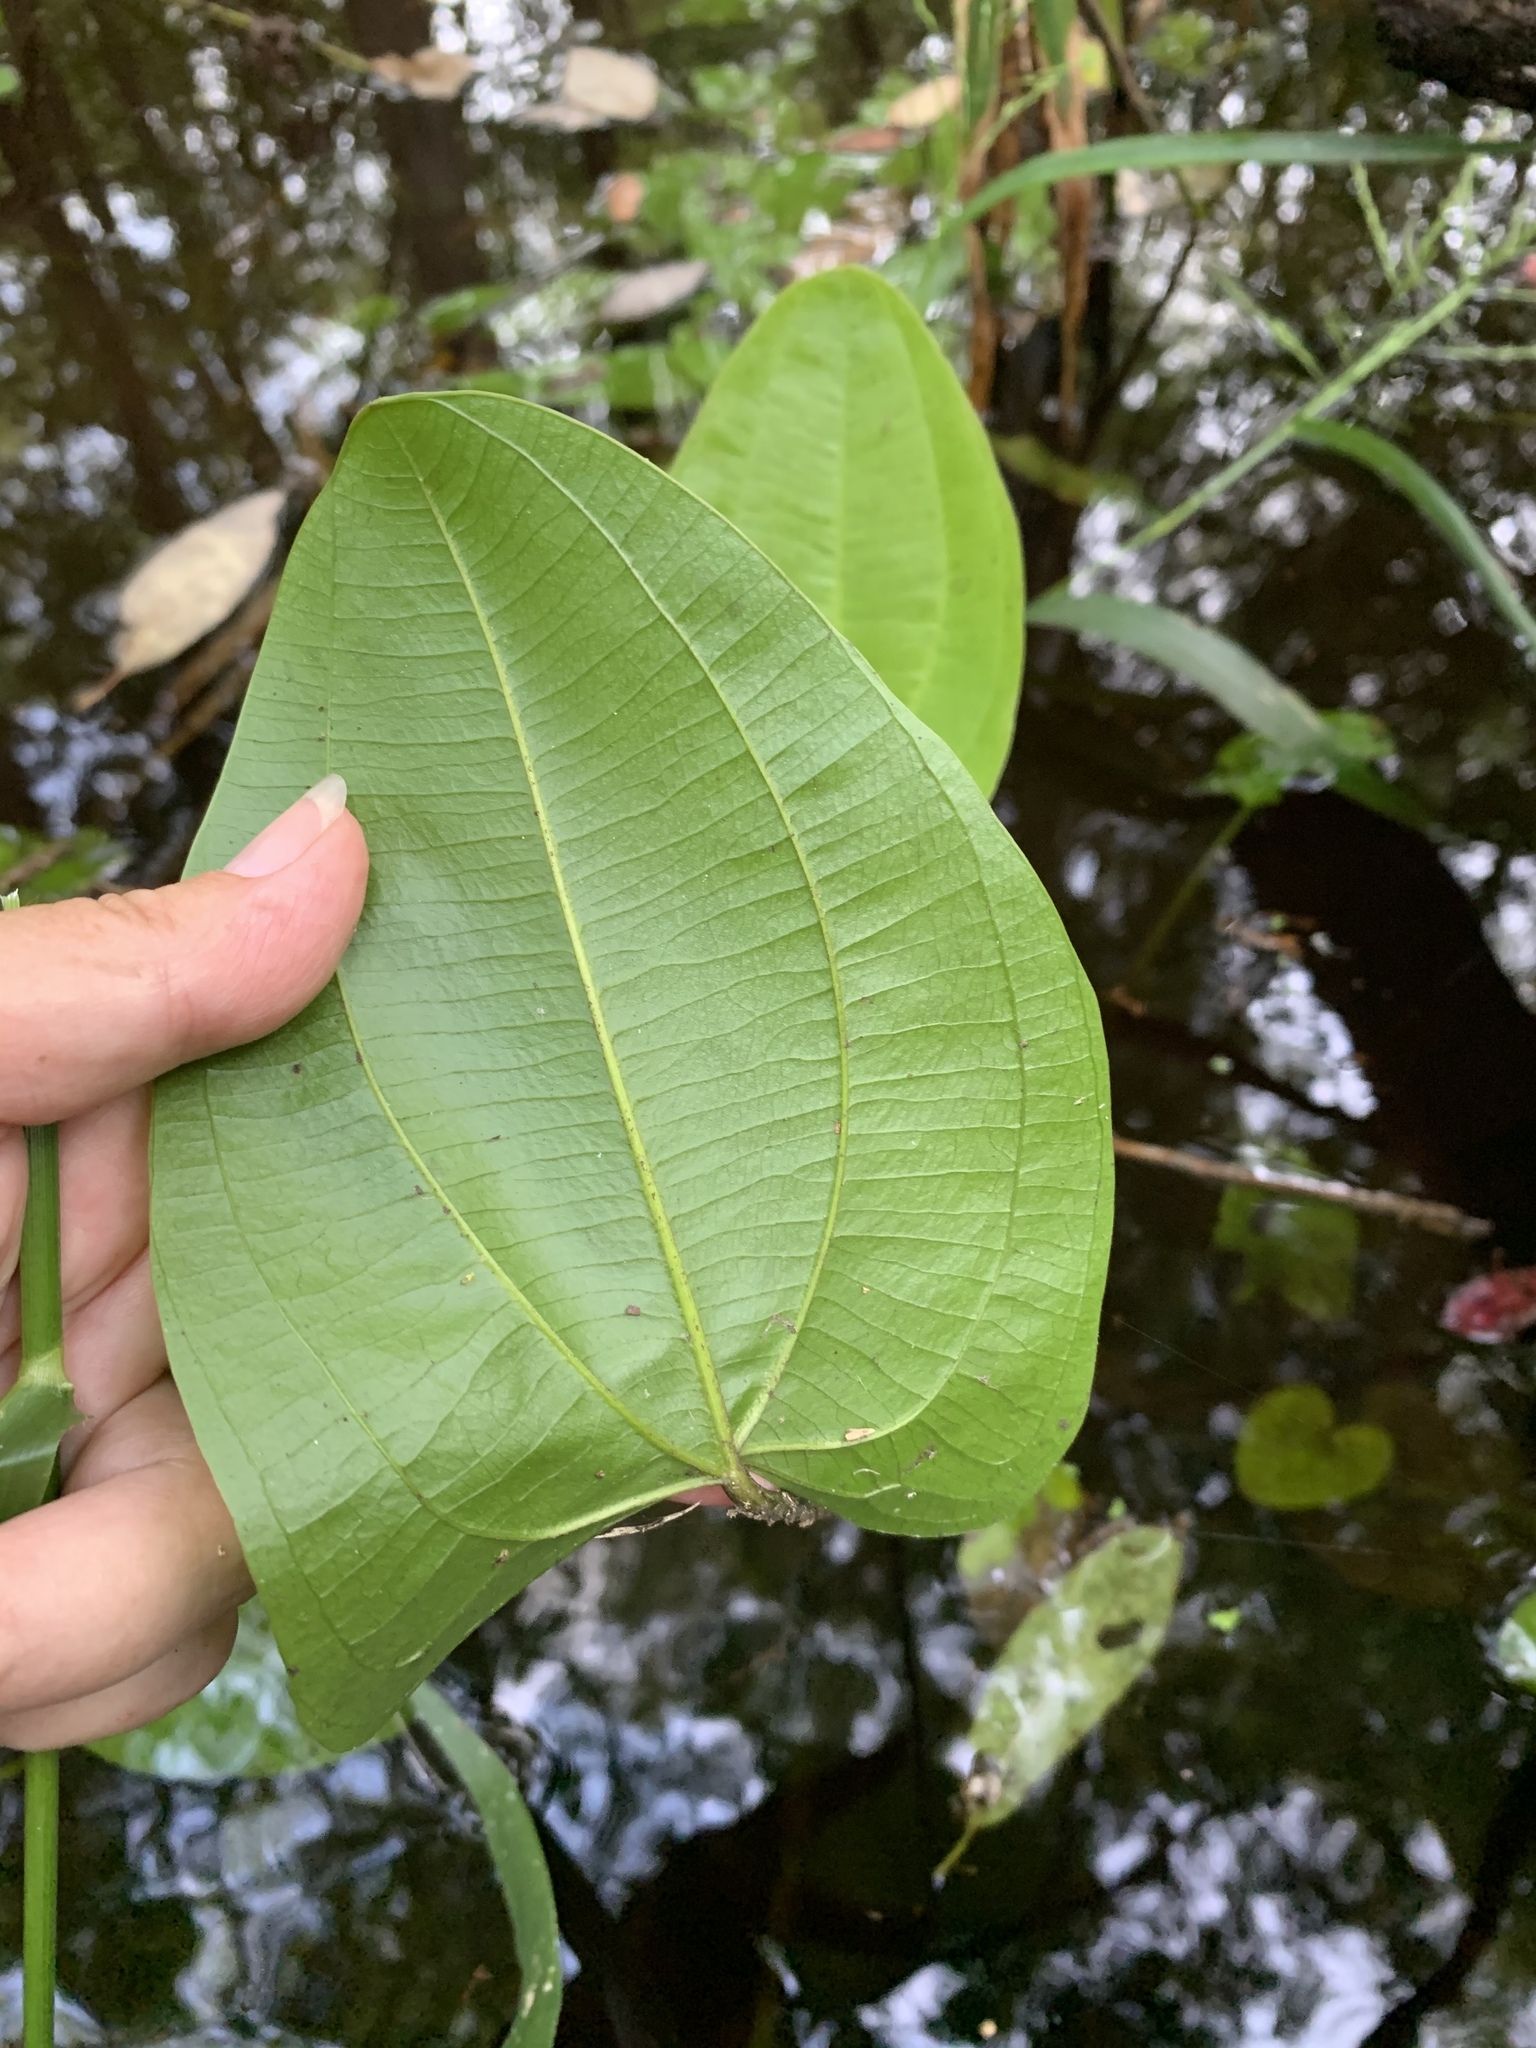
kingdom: Plantae
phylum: Tracheophyta
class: Liliopsida
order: Alismatales
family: Alismataceae
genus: Aquarius
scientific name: Aquarius cordifolius
